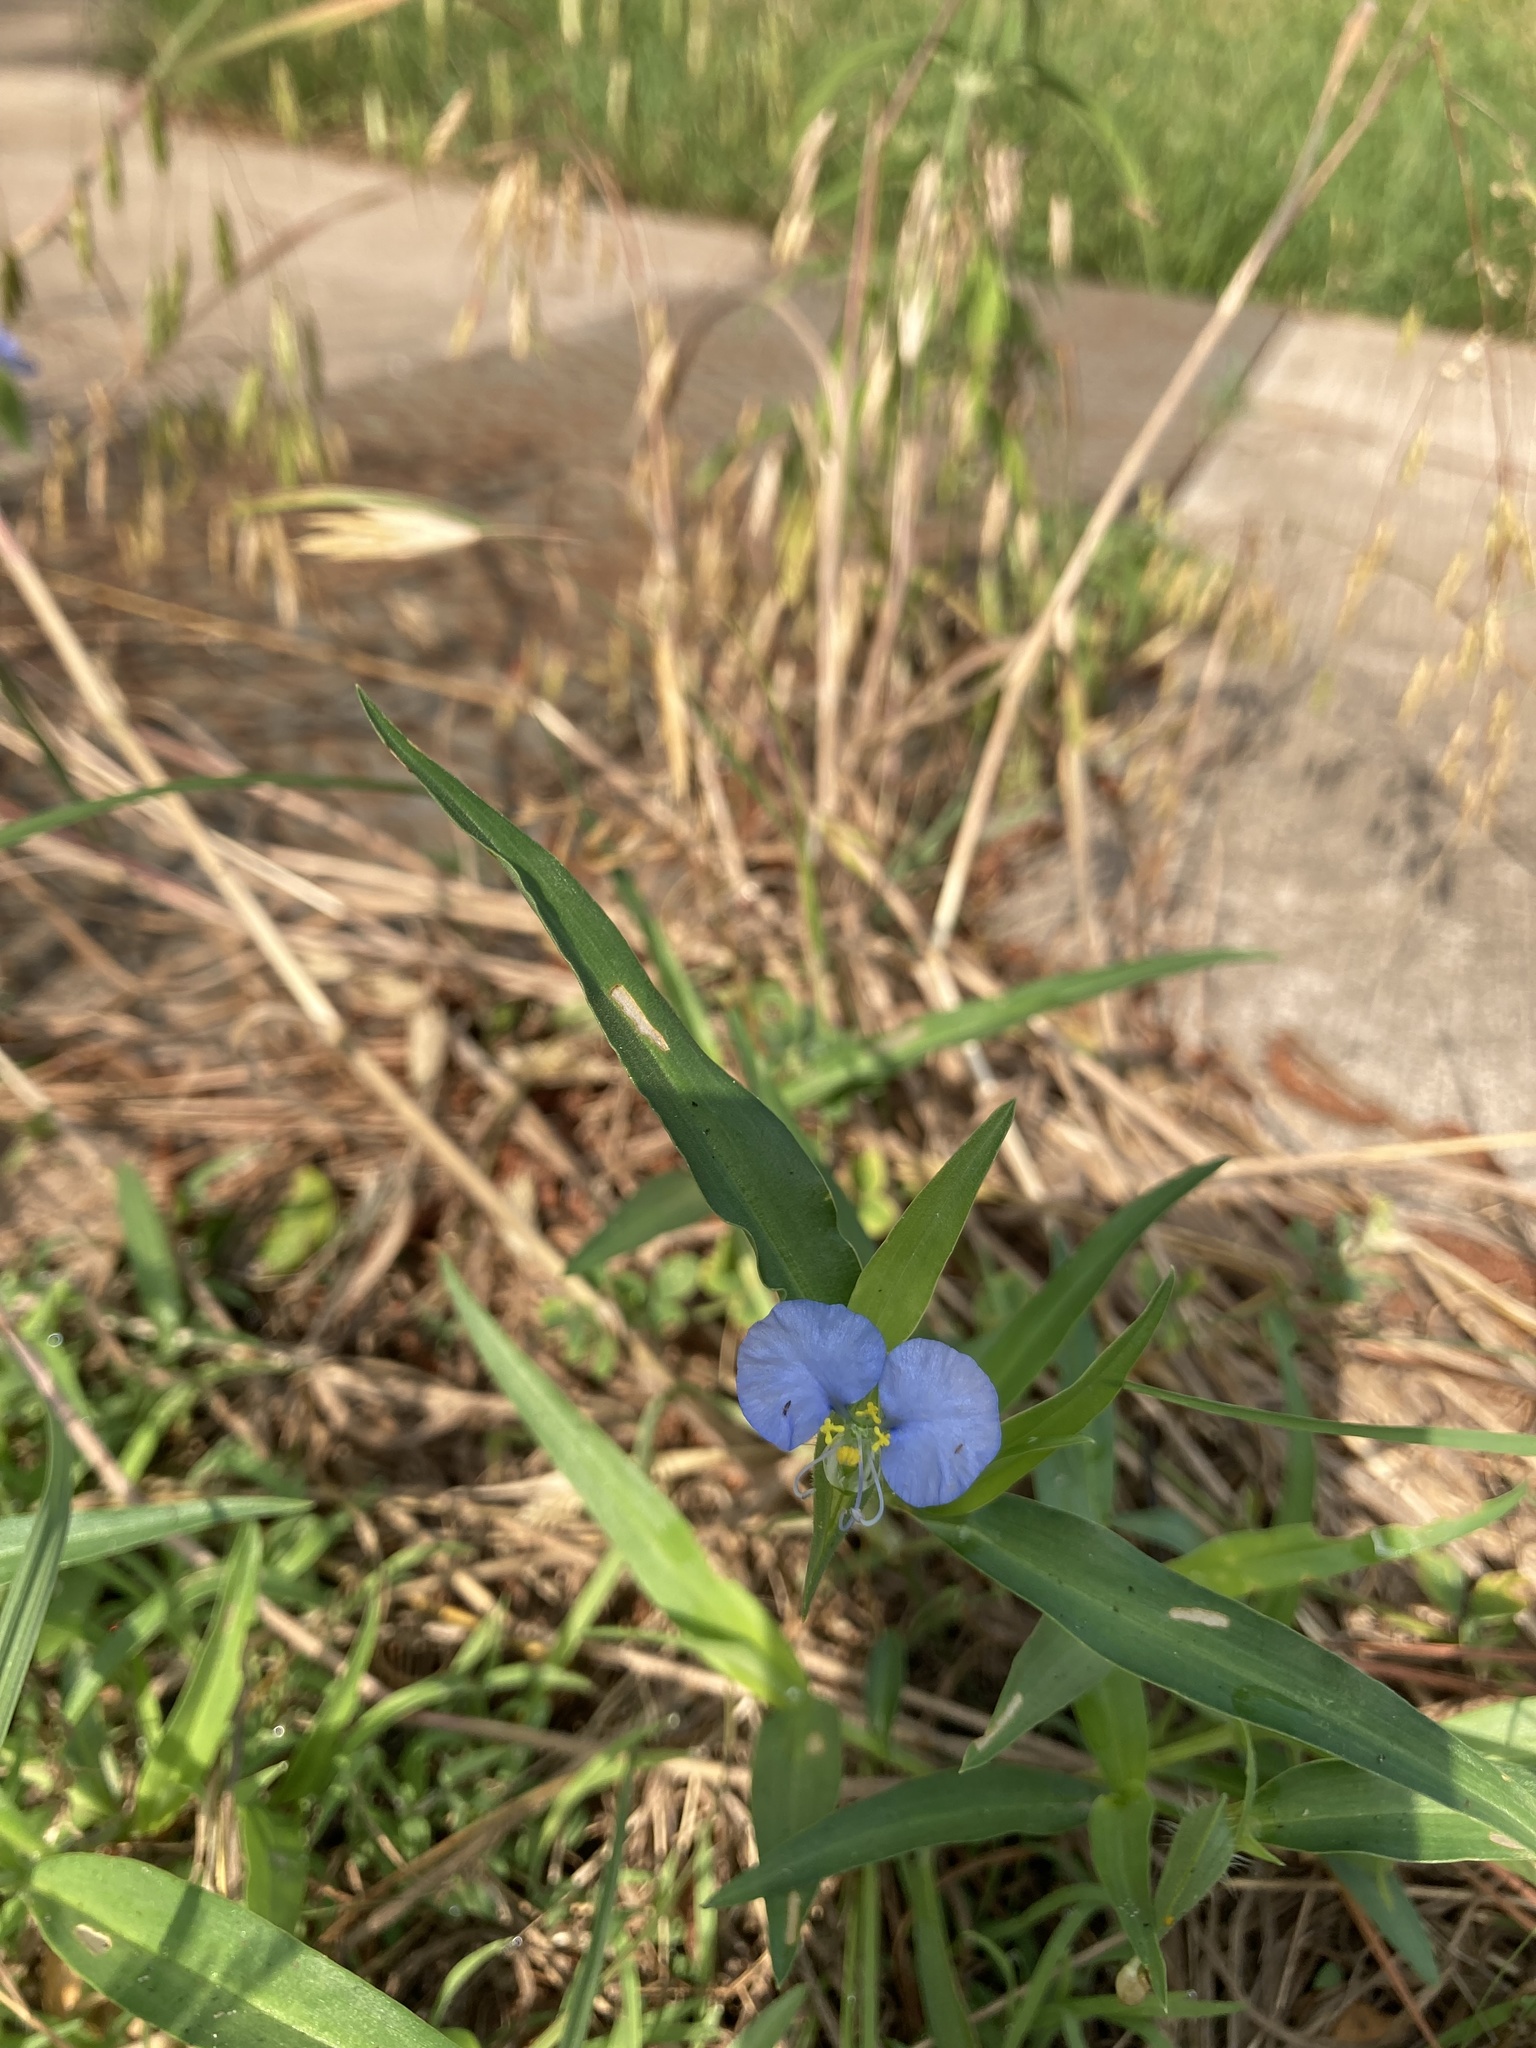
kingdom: Plantae
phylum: Tracheophyta
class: Liliopsida
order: Commelinales
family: Commelinaceae
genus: Commelina
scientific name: Commelina erecta
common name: Blousel blommetjie
